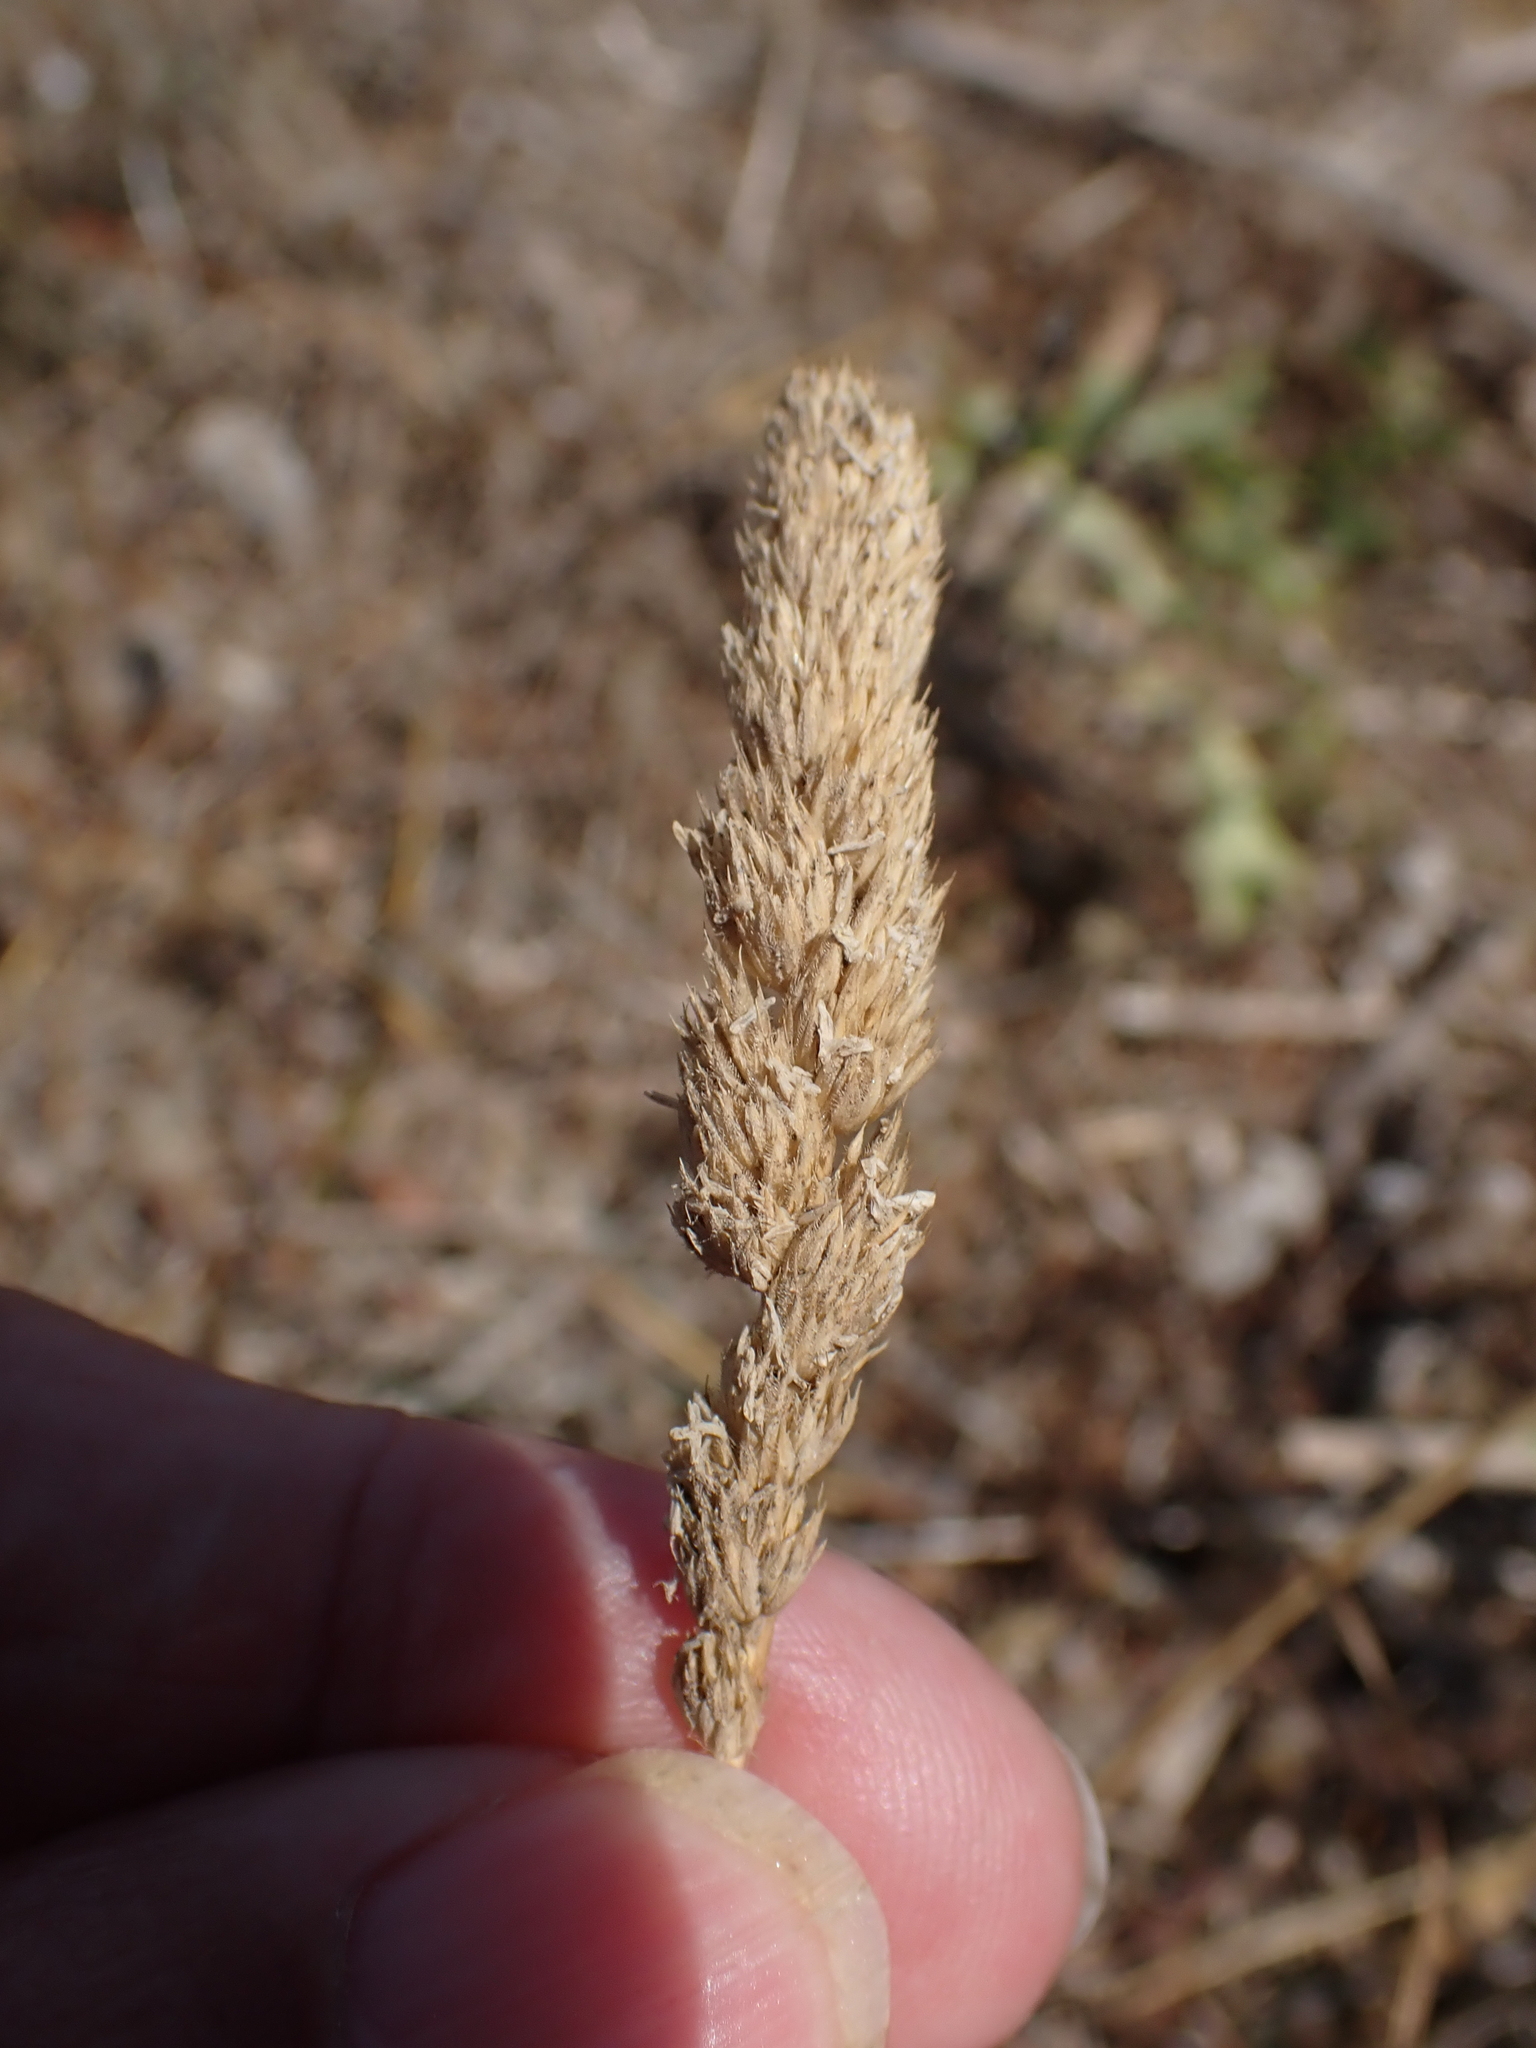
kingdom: Plantae
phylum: Tracheophyta
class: Liliopsida
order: Poales
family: Poaceae
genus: Dactylis
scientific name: Dactylis glomerata
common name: Orchardgrass
